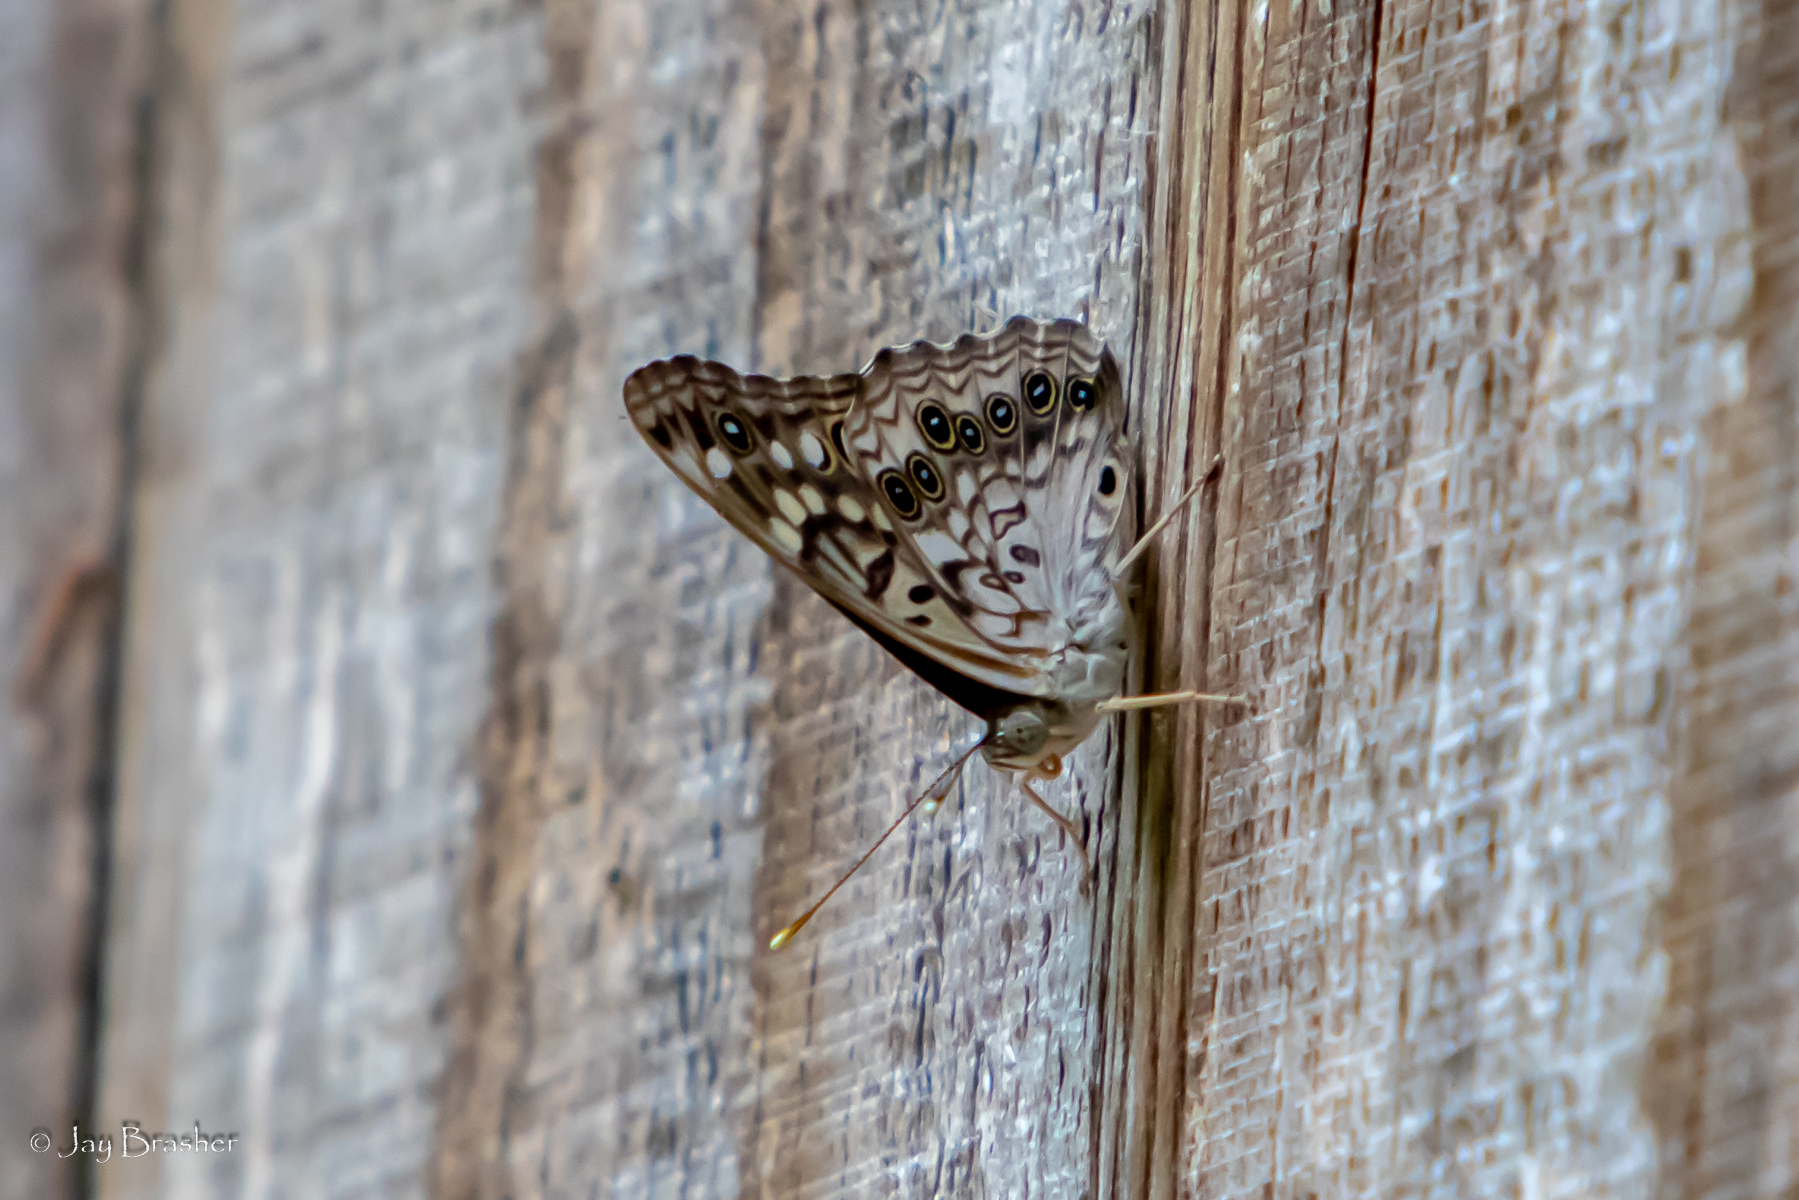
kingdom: Animalia
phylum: Arthropoda
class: Insecta
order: Lepidoptera
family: Nymphalidae
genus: Asterocampa
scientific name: Asterocampa celtis
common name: Hackberry emperor
